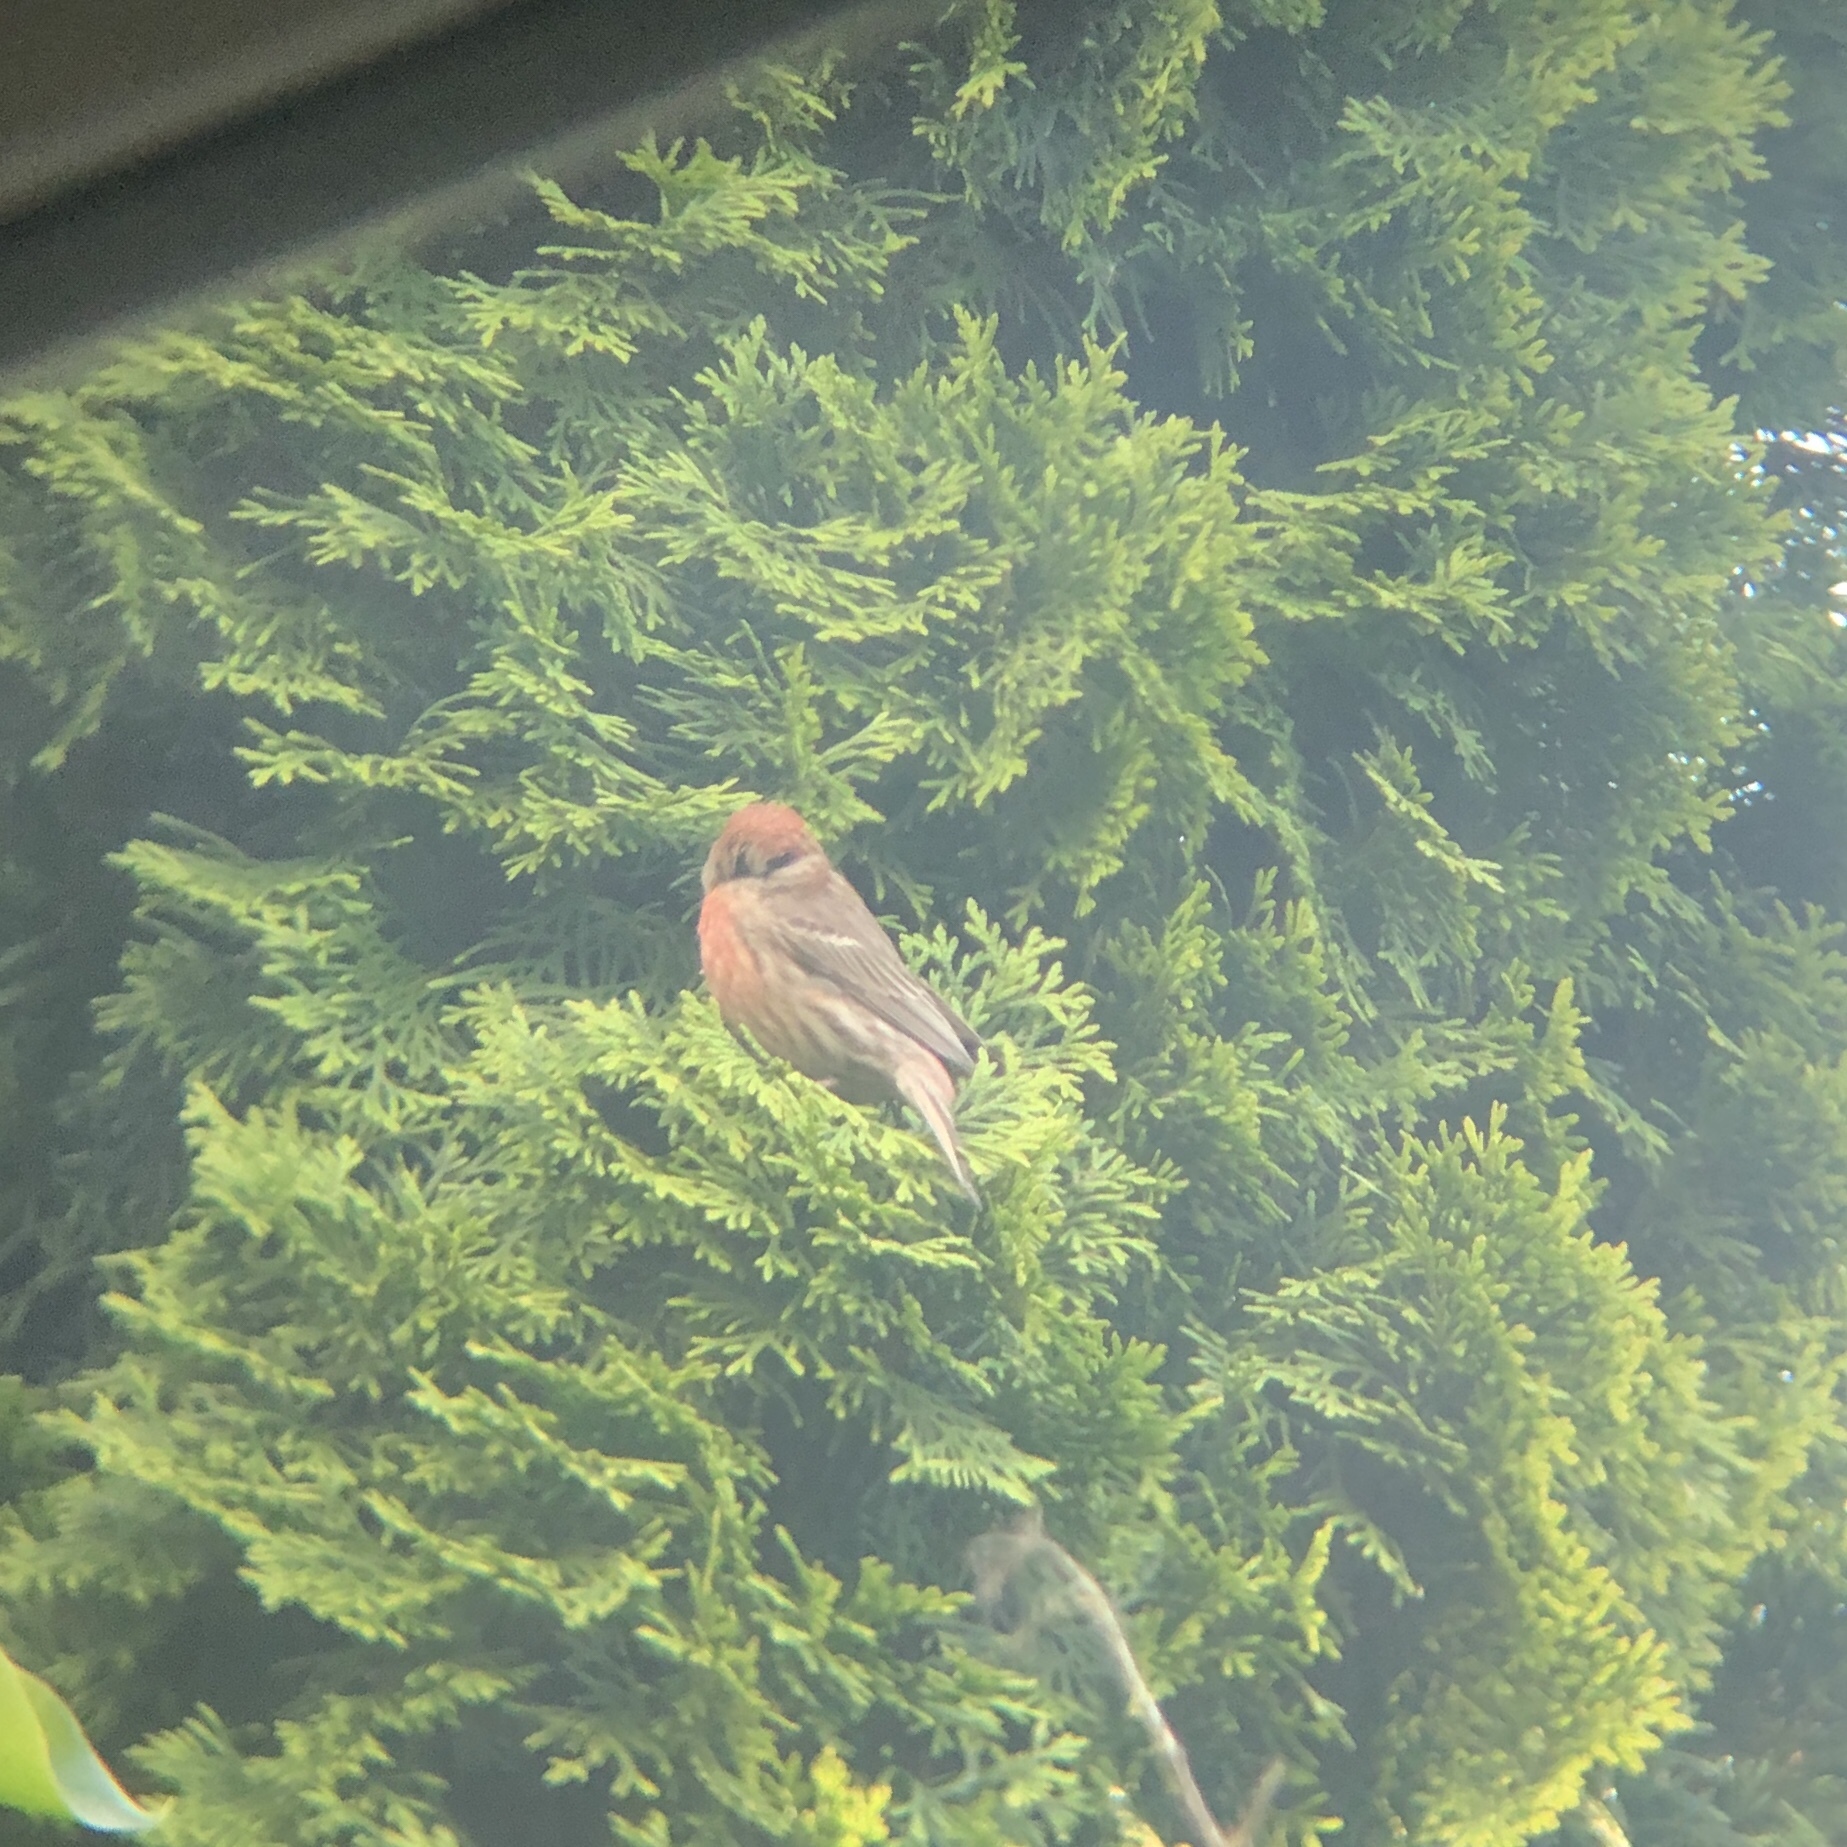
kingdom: Animalia
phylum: Chordata
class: Aves
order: Passeriformes
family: Fringillidae
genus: Haemorhous
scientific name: Haemorhous mexicanus
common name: House finch
